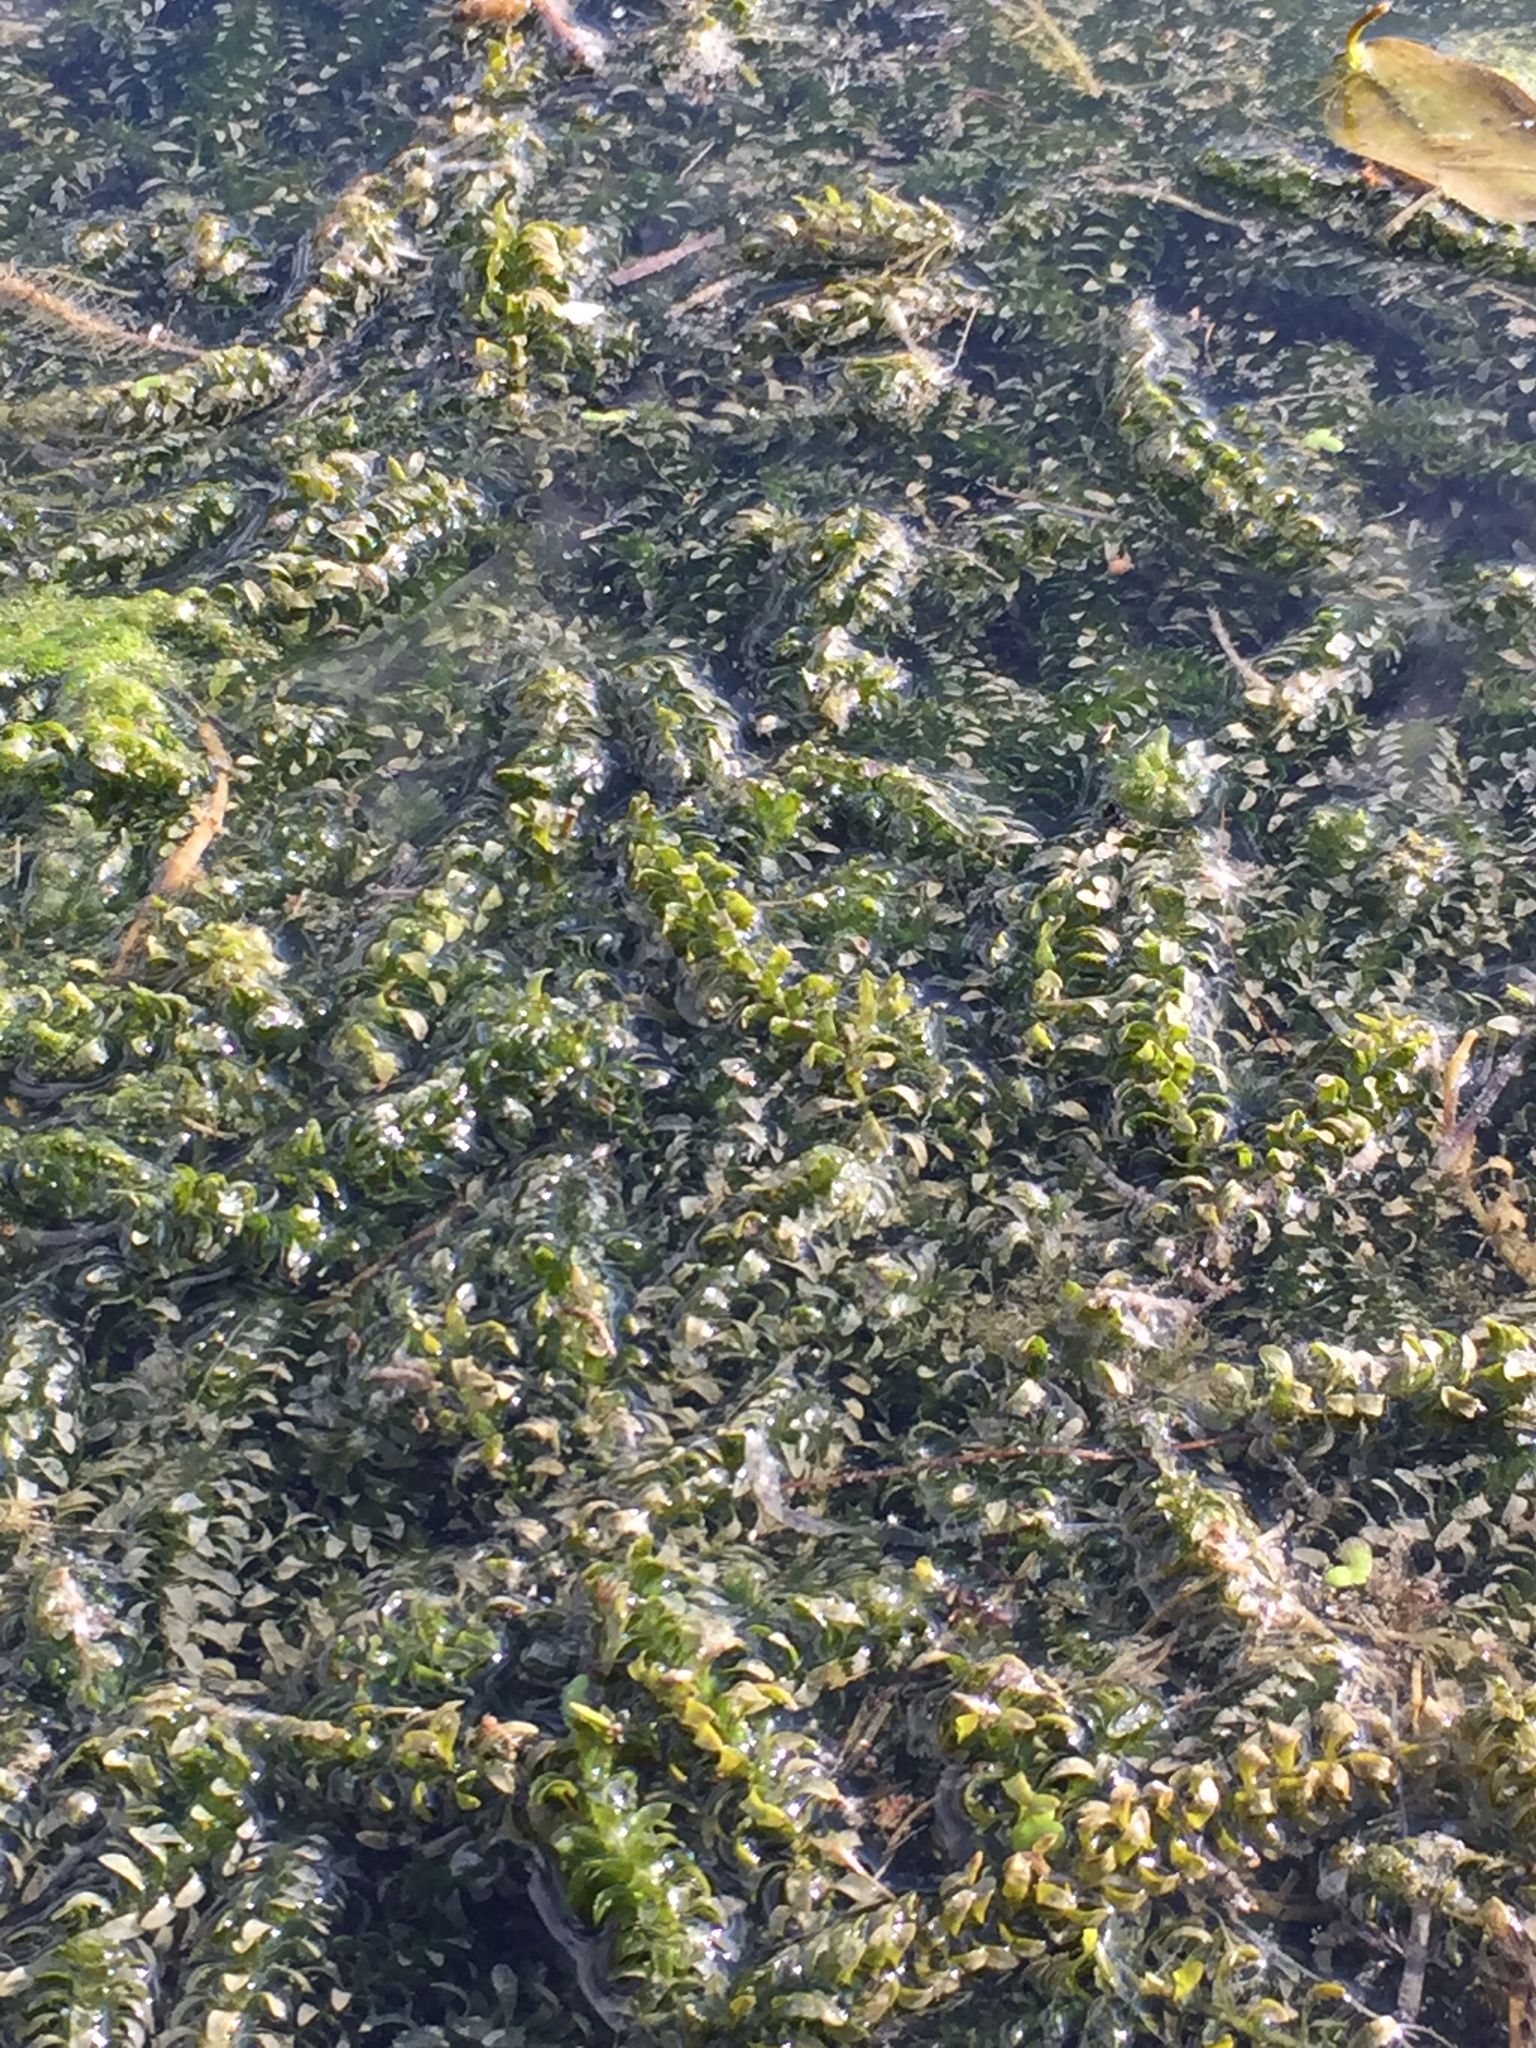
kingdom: Plantae
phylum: Tracheophyta
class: Liliopsida
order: Alismatales
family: Hydrocharitaceae
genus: Elodea
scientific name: Elodea canadensis
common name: Canadian waterweed
